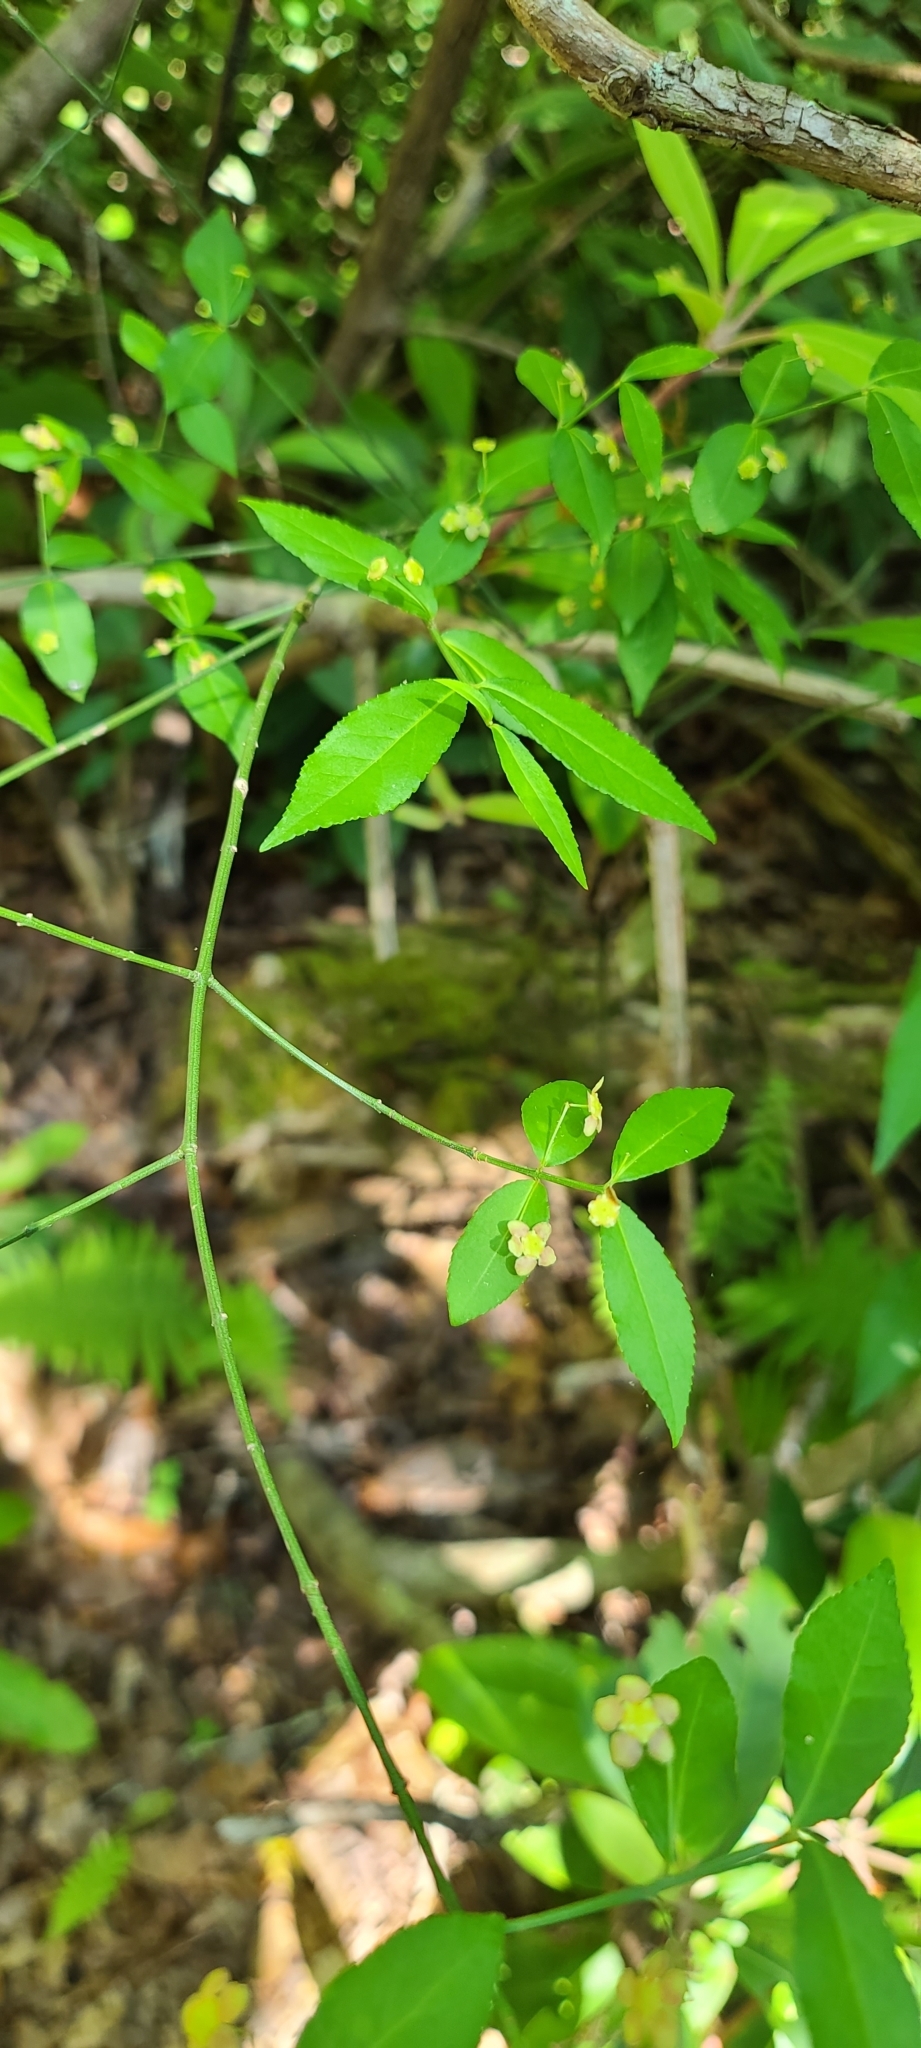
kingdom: Plantae
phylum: Tracheophyta
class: Magnoliopsida
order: Celastrales
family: Celastraceae
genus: Euonymus
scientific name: Euonymus americanus
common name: Bursting-heart
